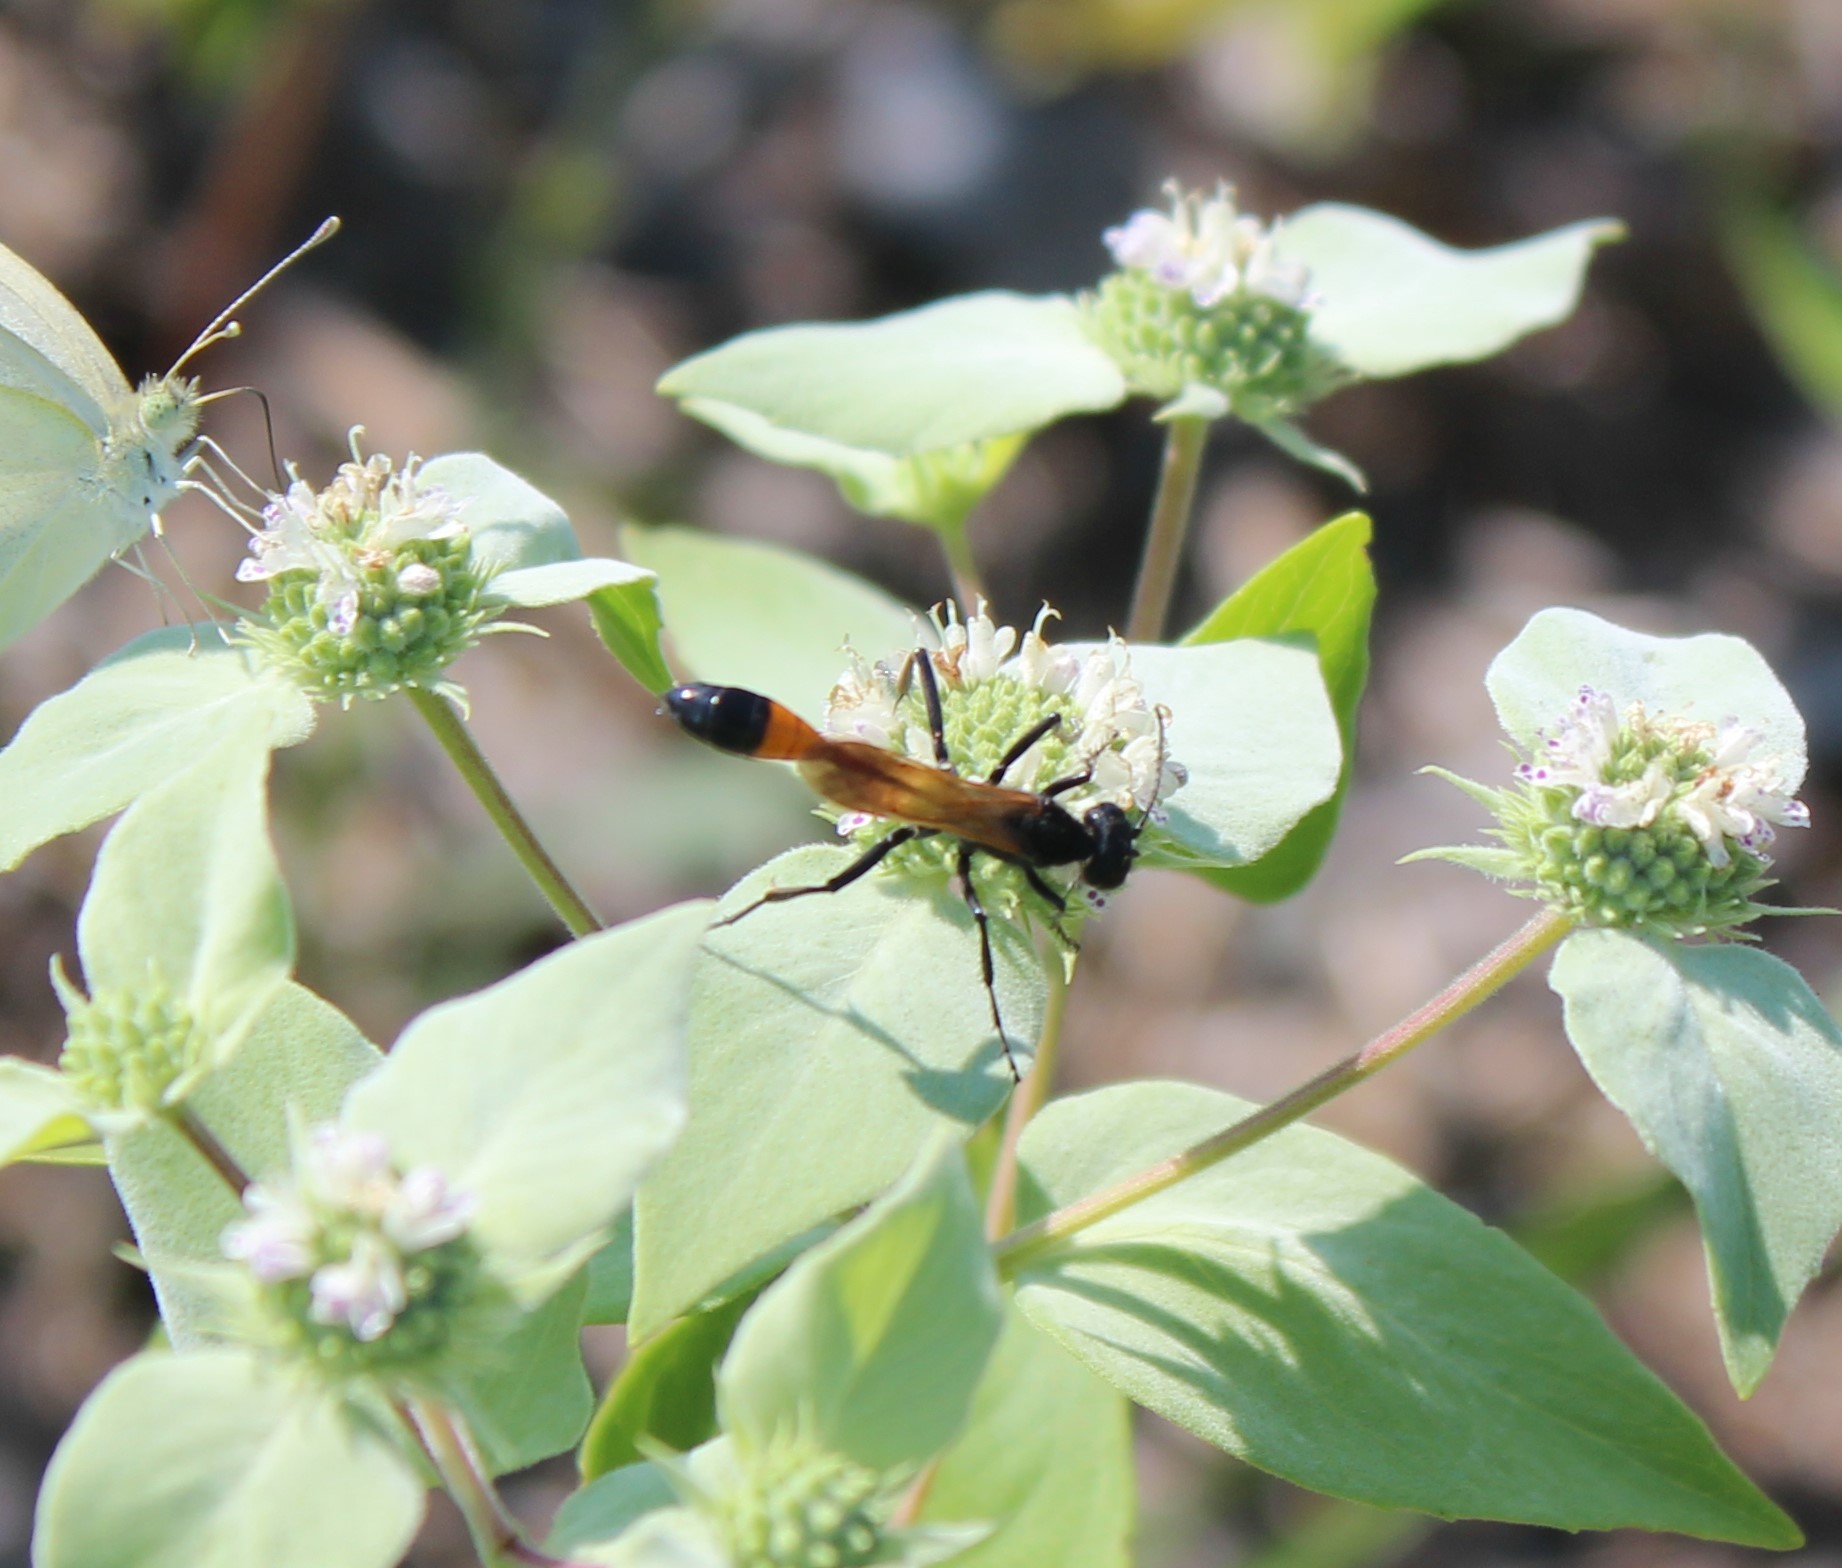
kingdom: Animalia
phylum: Arthropoda
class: Insecta
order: Hymenoptera
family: Sphecidae
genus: Ammophila
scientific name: Ammophila pictipennis
